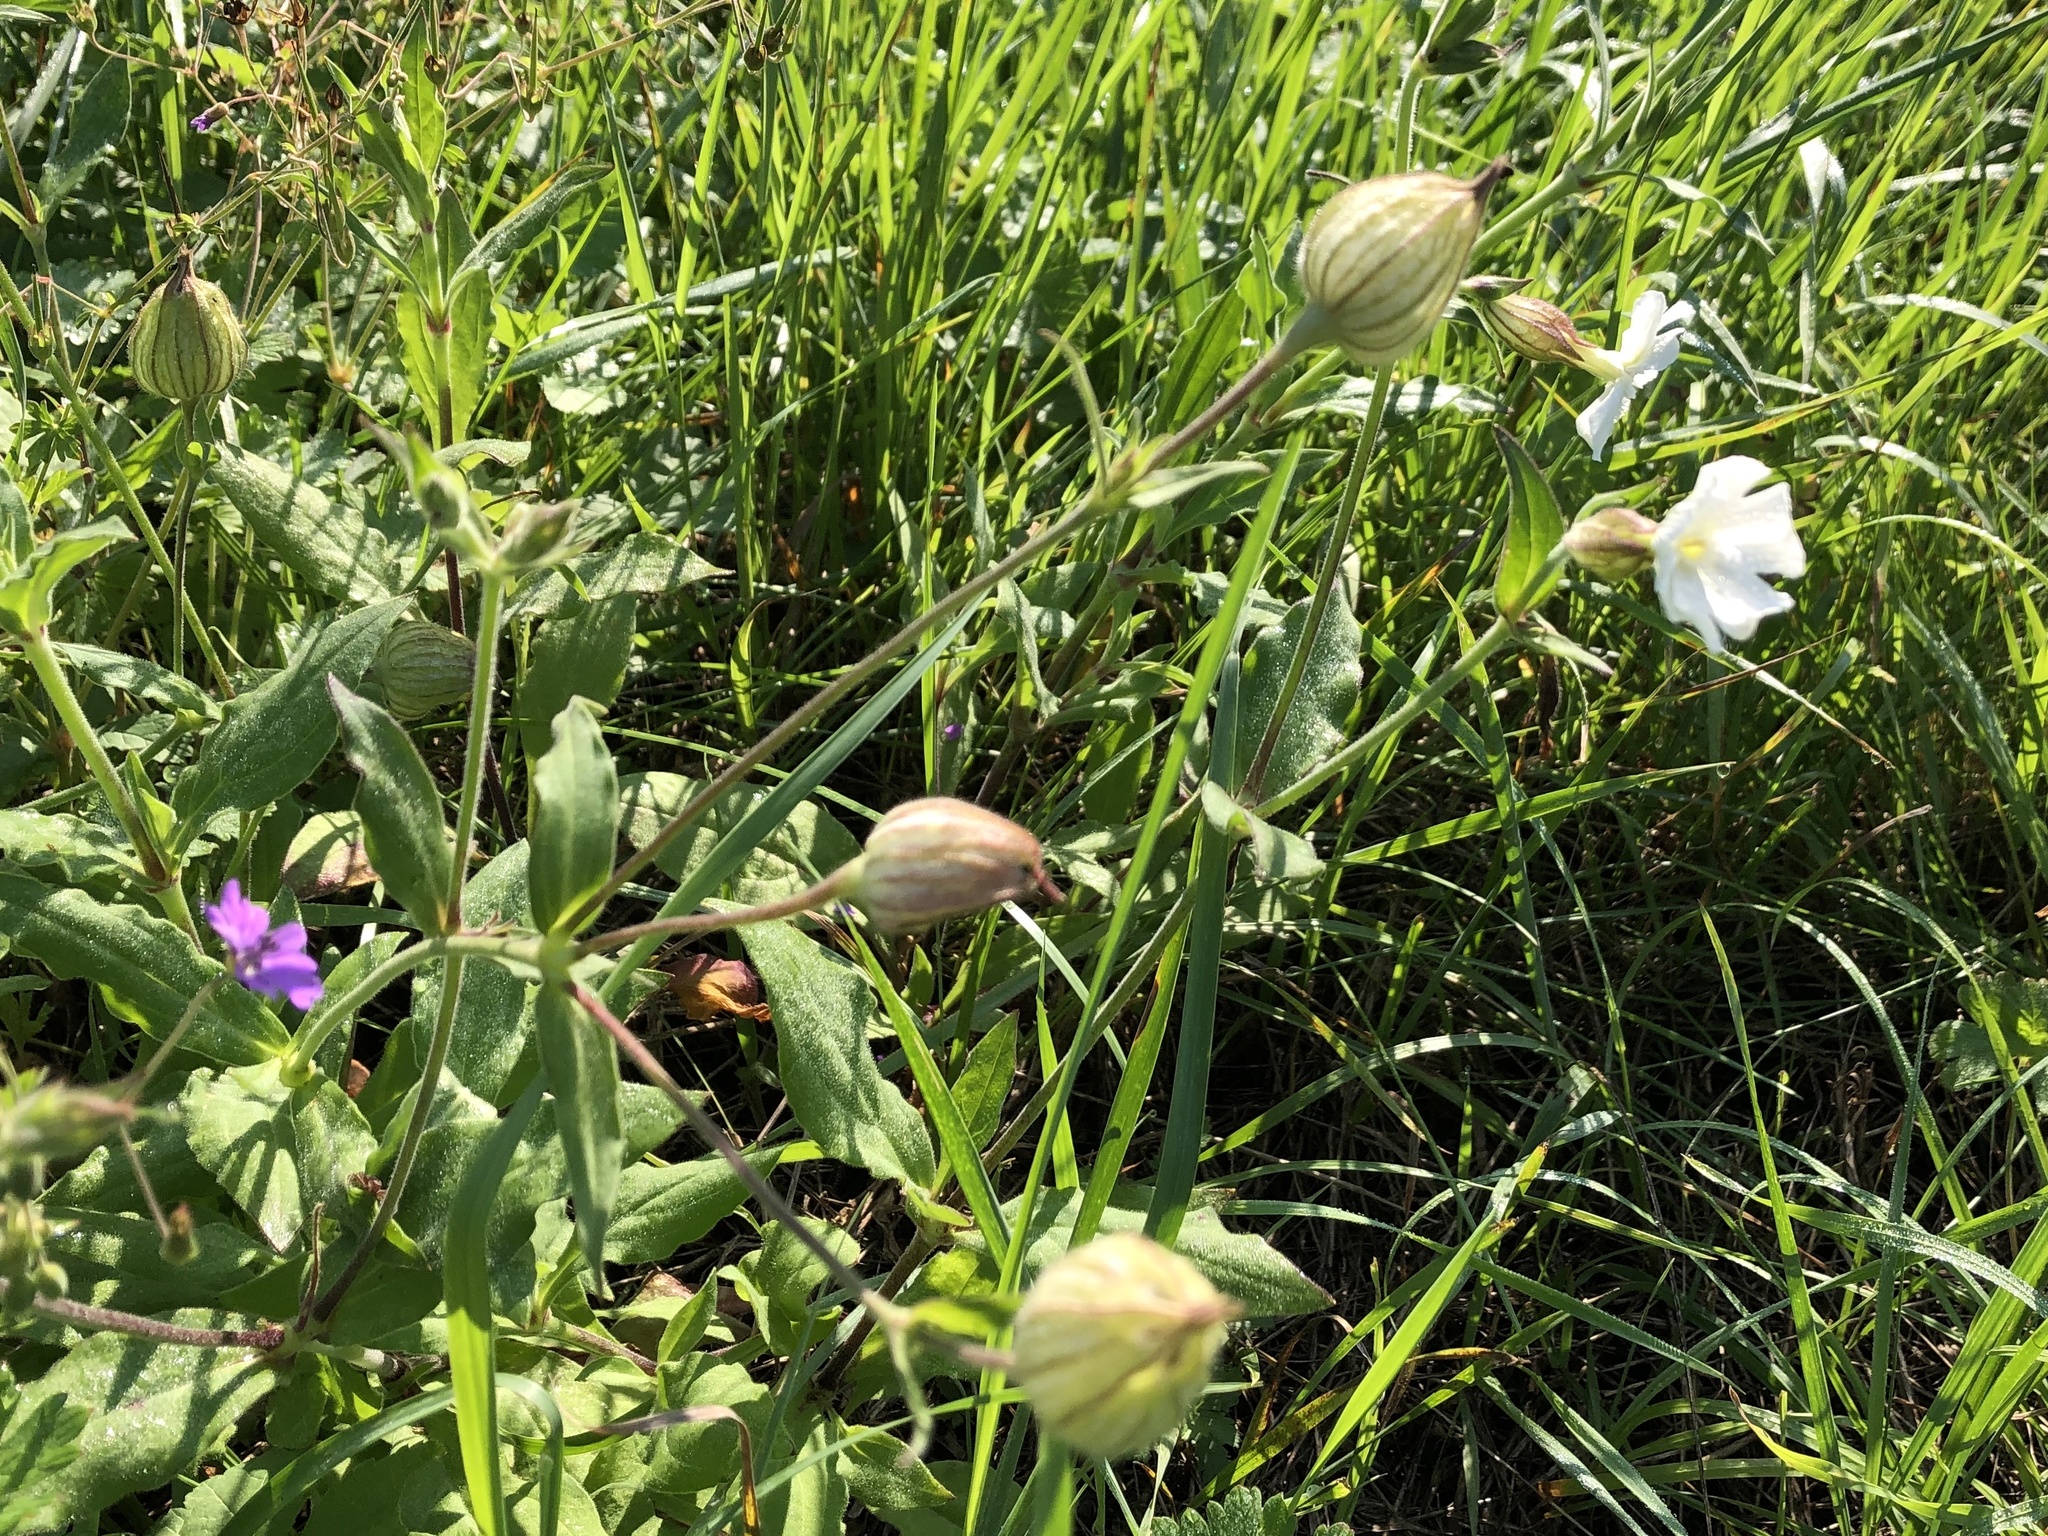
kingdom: Plantae
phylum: Tracheophyta
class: Magnoliopsida
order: Caryophyllales
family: Caryophyllaceae
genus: Silene
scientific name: Silene latifolia
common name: White campion
